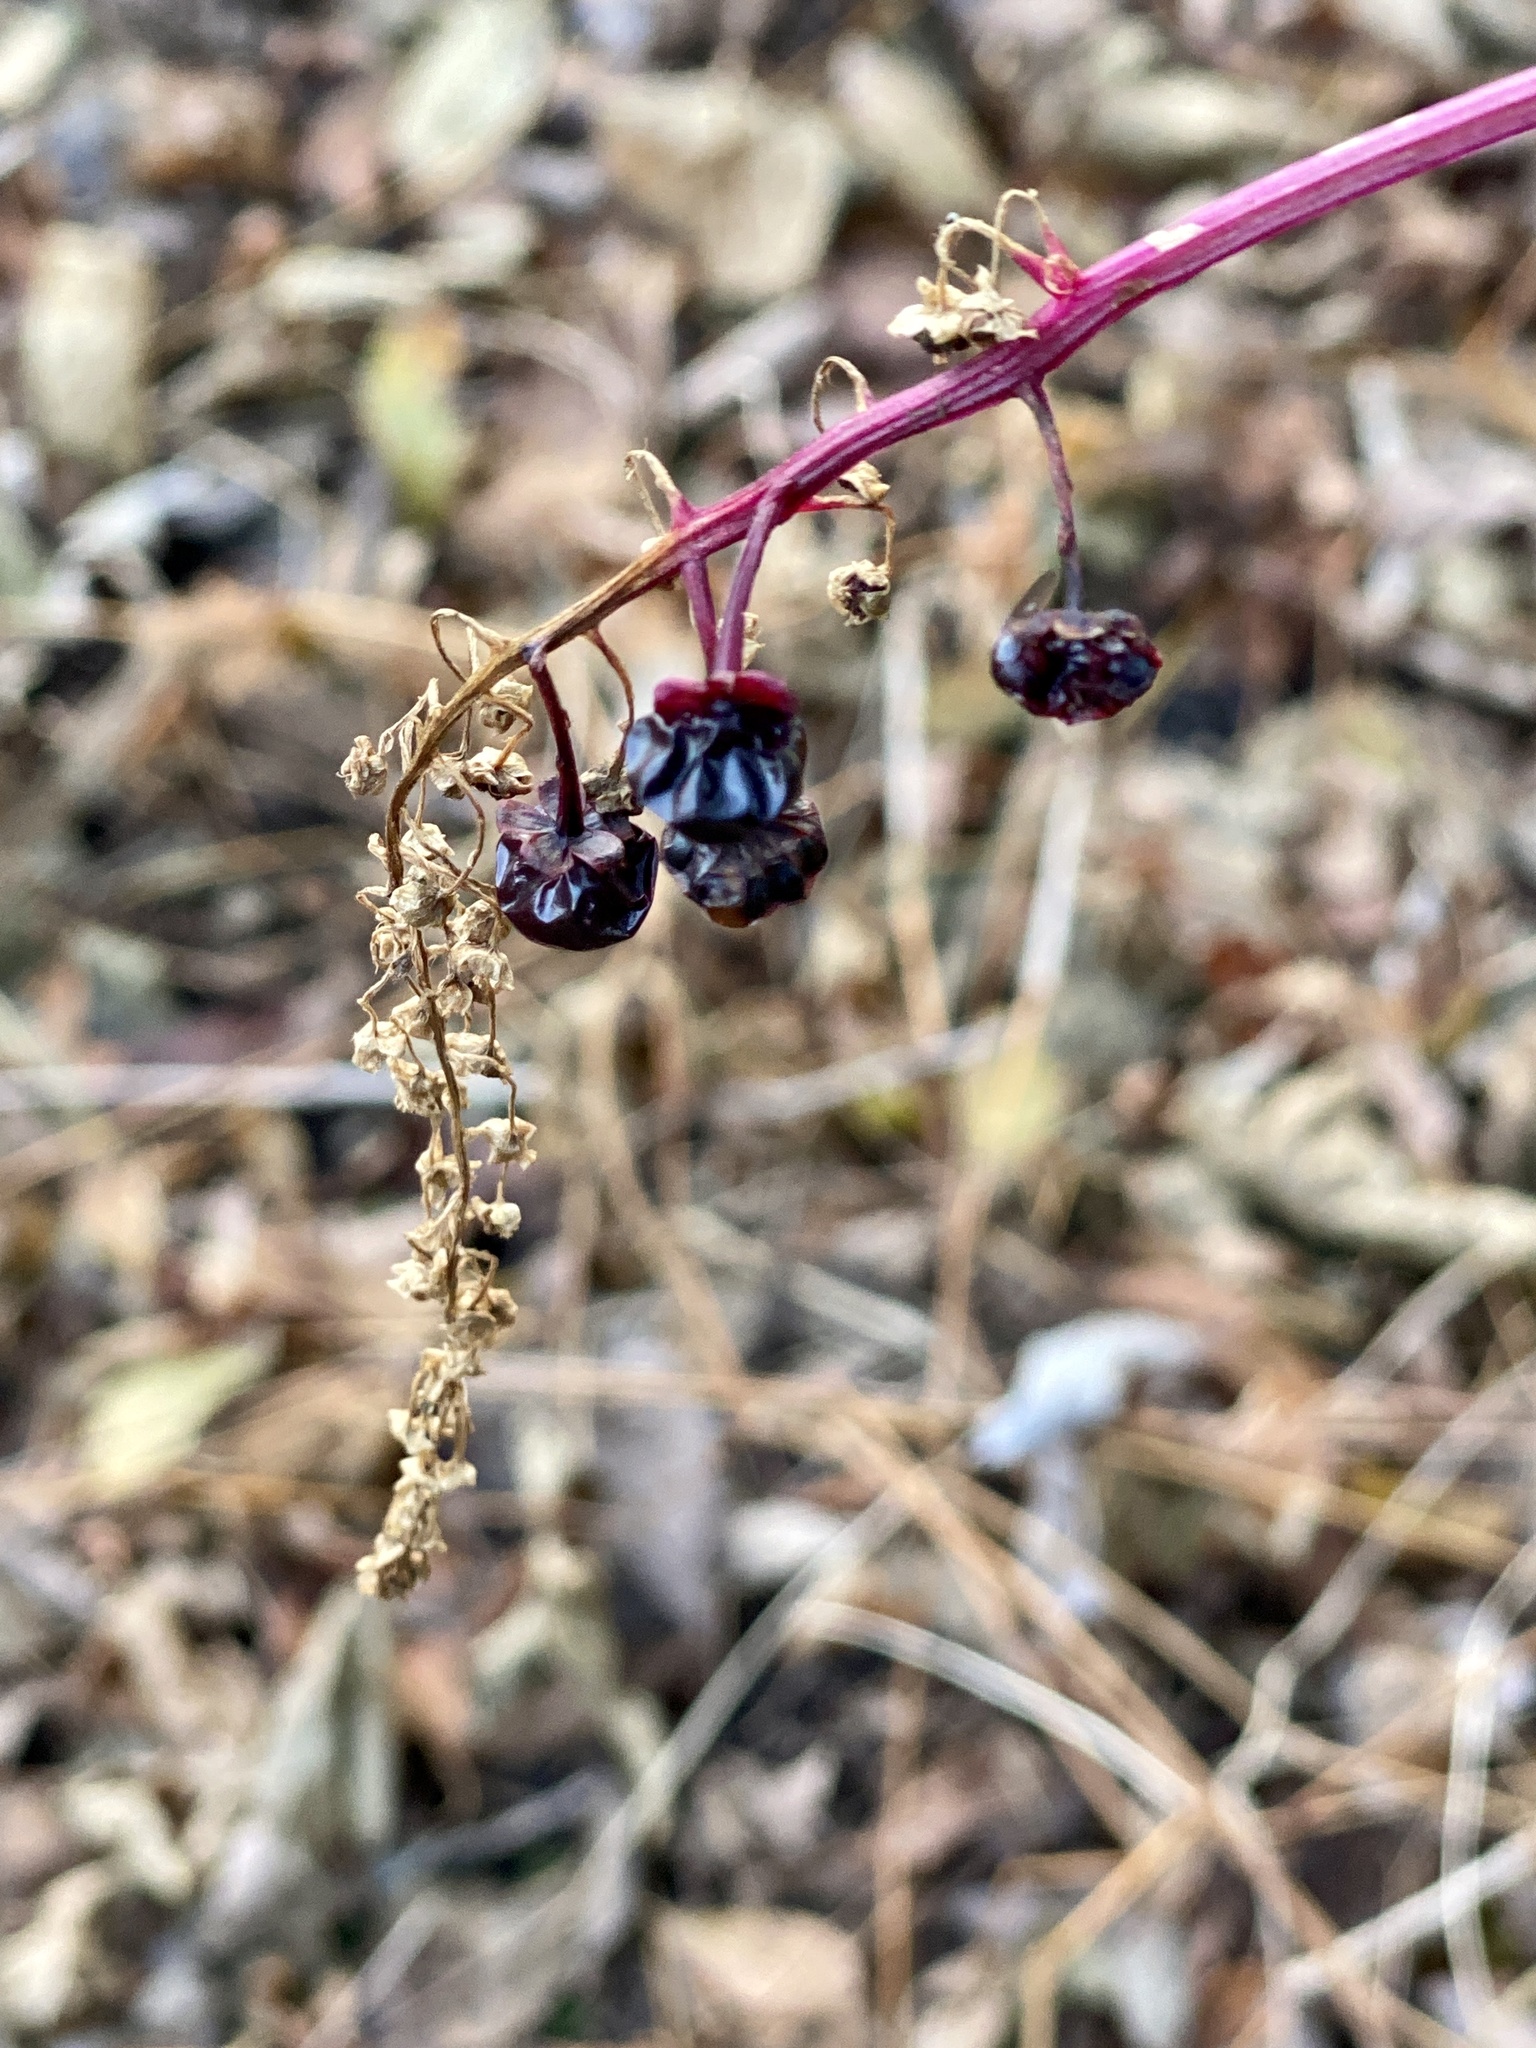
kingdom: Plantae
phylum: Tracheophyta
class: Magnoliopsida
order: Caryophyllales
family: Phytolaccaceae
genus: Phytolacca
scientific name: Phytolacca americana
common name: American pokeweed
